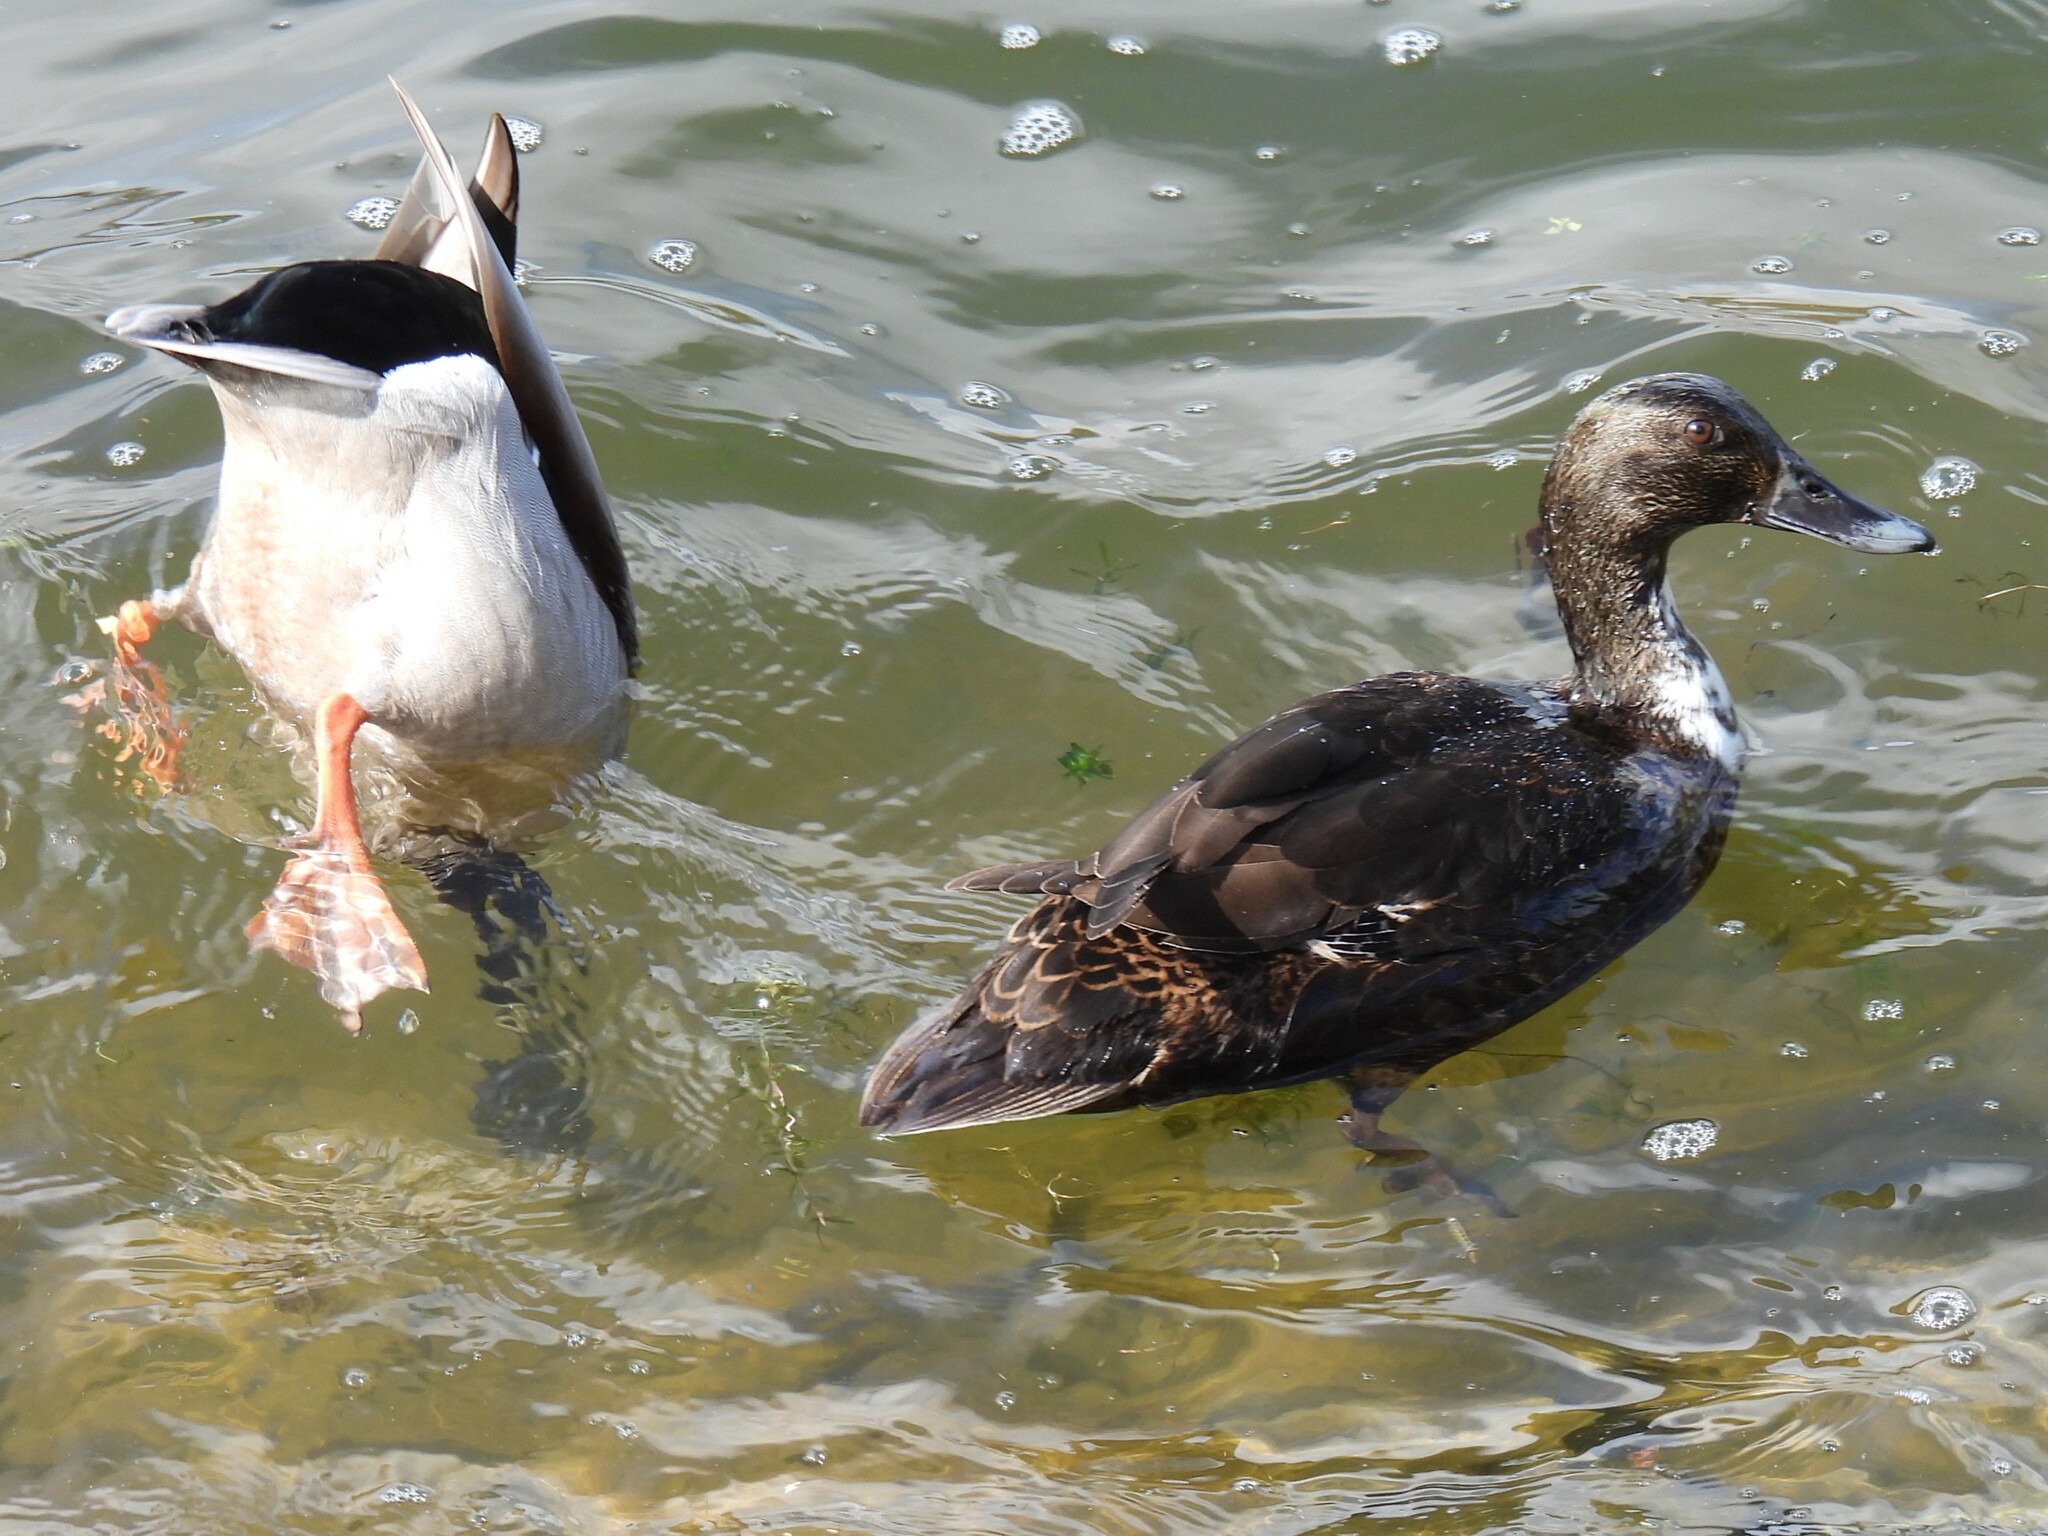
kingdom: Animalia
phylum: Chordata
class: Aves
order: Anseriformes
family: Anatidae
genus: Anas
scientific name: Anas platyrhynchos
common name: Mallard
